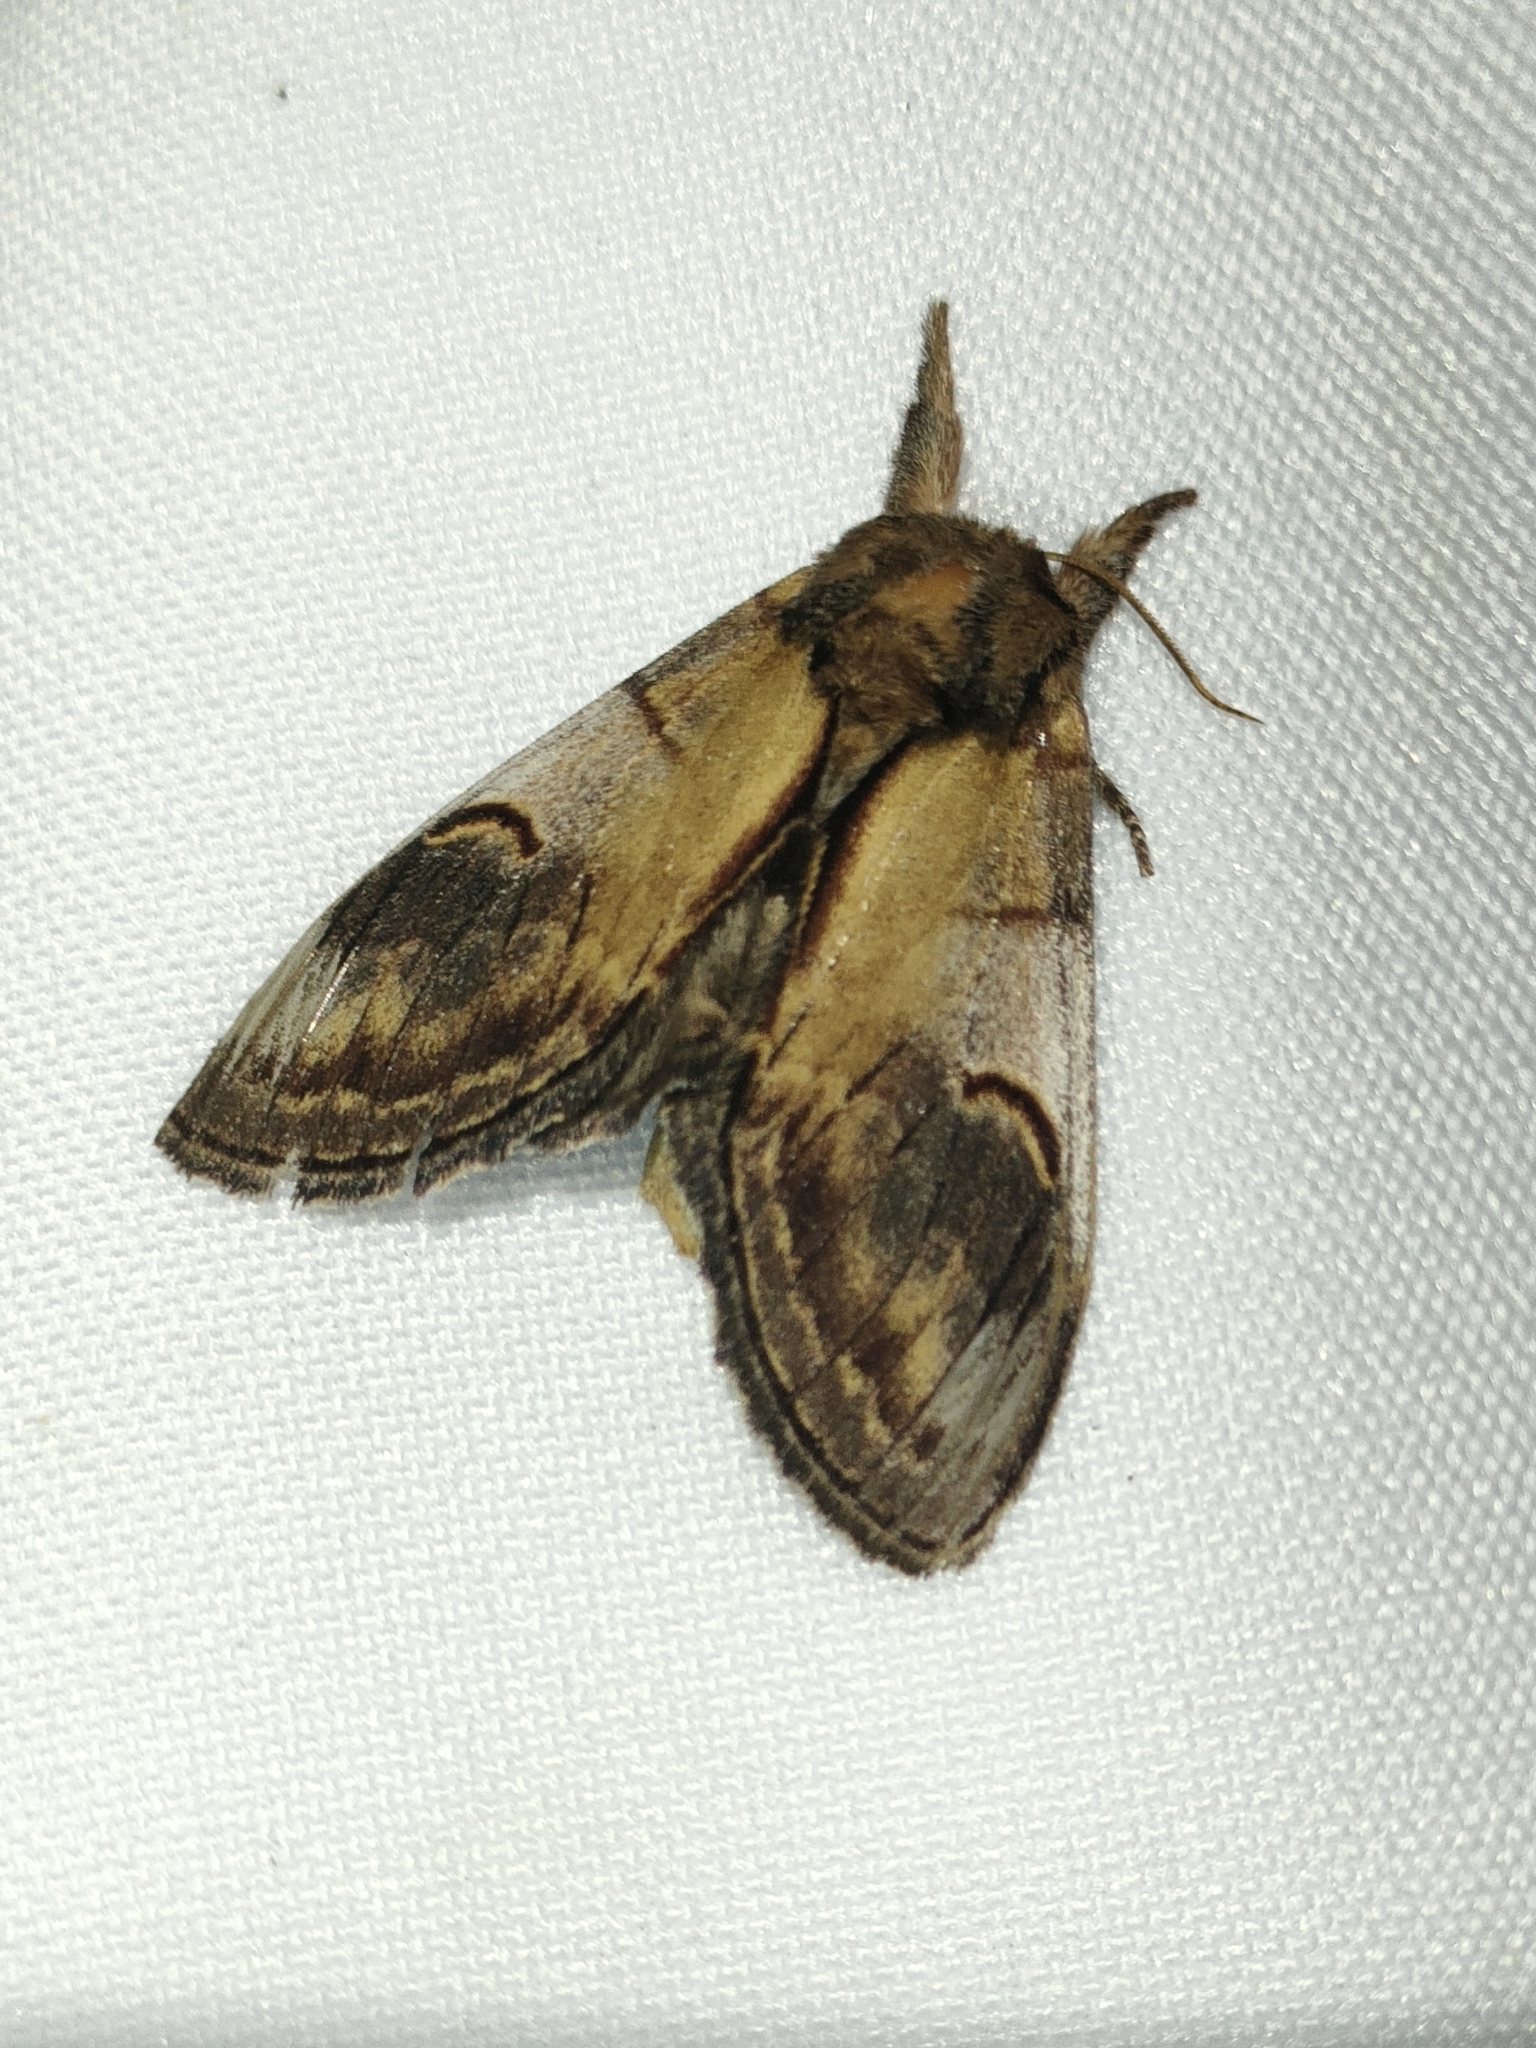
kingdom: Animalia
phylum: Arthropoda
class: Insecta
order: Lepidoptera
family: Notodontidae
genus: Notodonta
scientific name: Notodonta ziczac
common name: Pebble prominent
